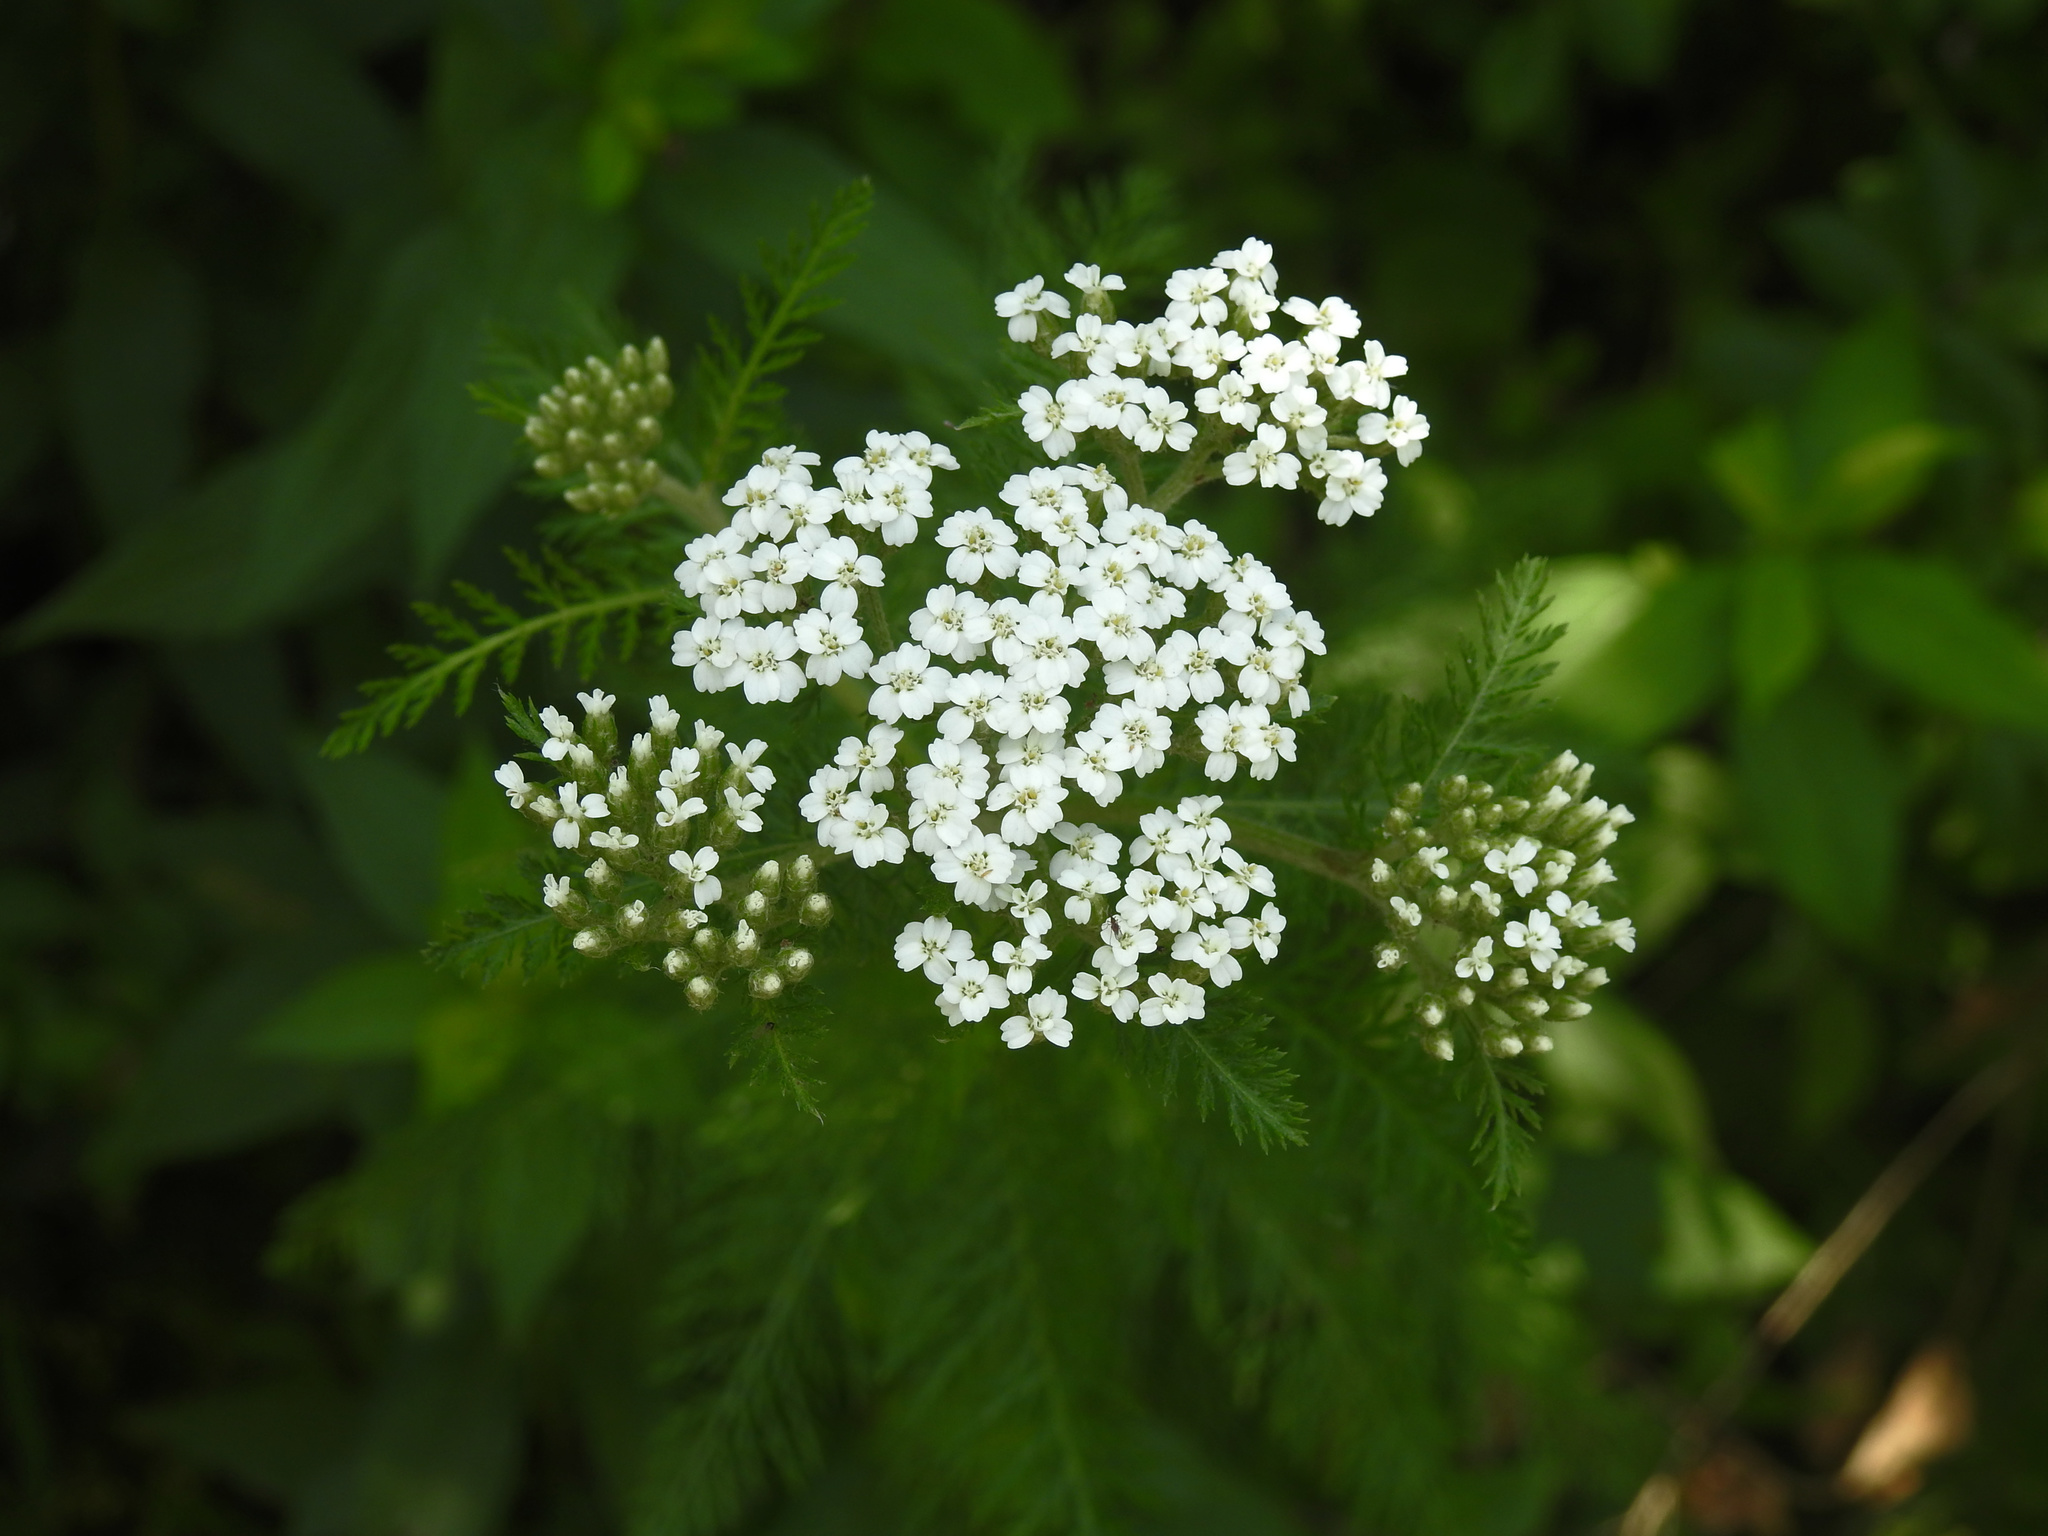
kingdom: Plantae
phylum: Tracheophyta
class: Magnoliopsida
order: Asterales
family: Asteraceae
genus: Achillea
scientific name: Achillea millefolium
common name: Yarrow
